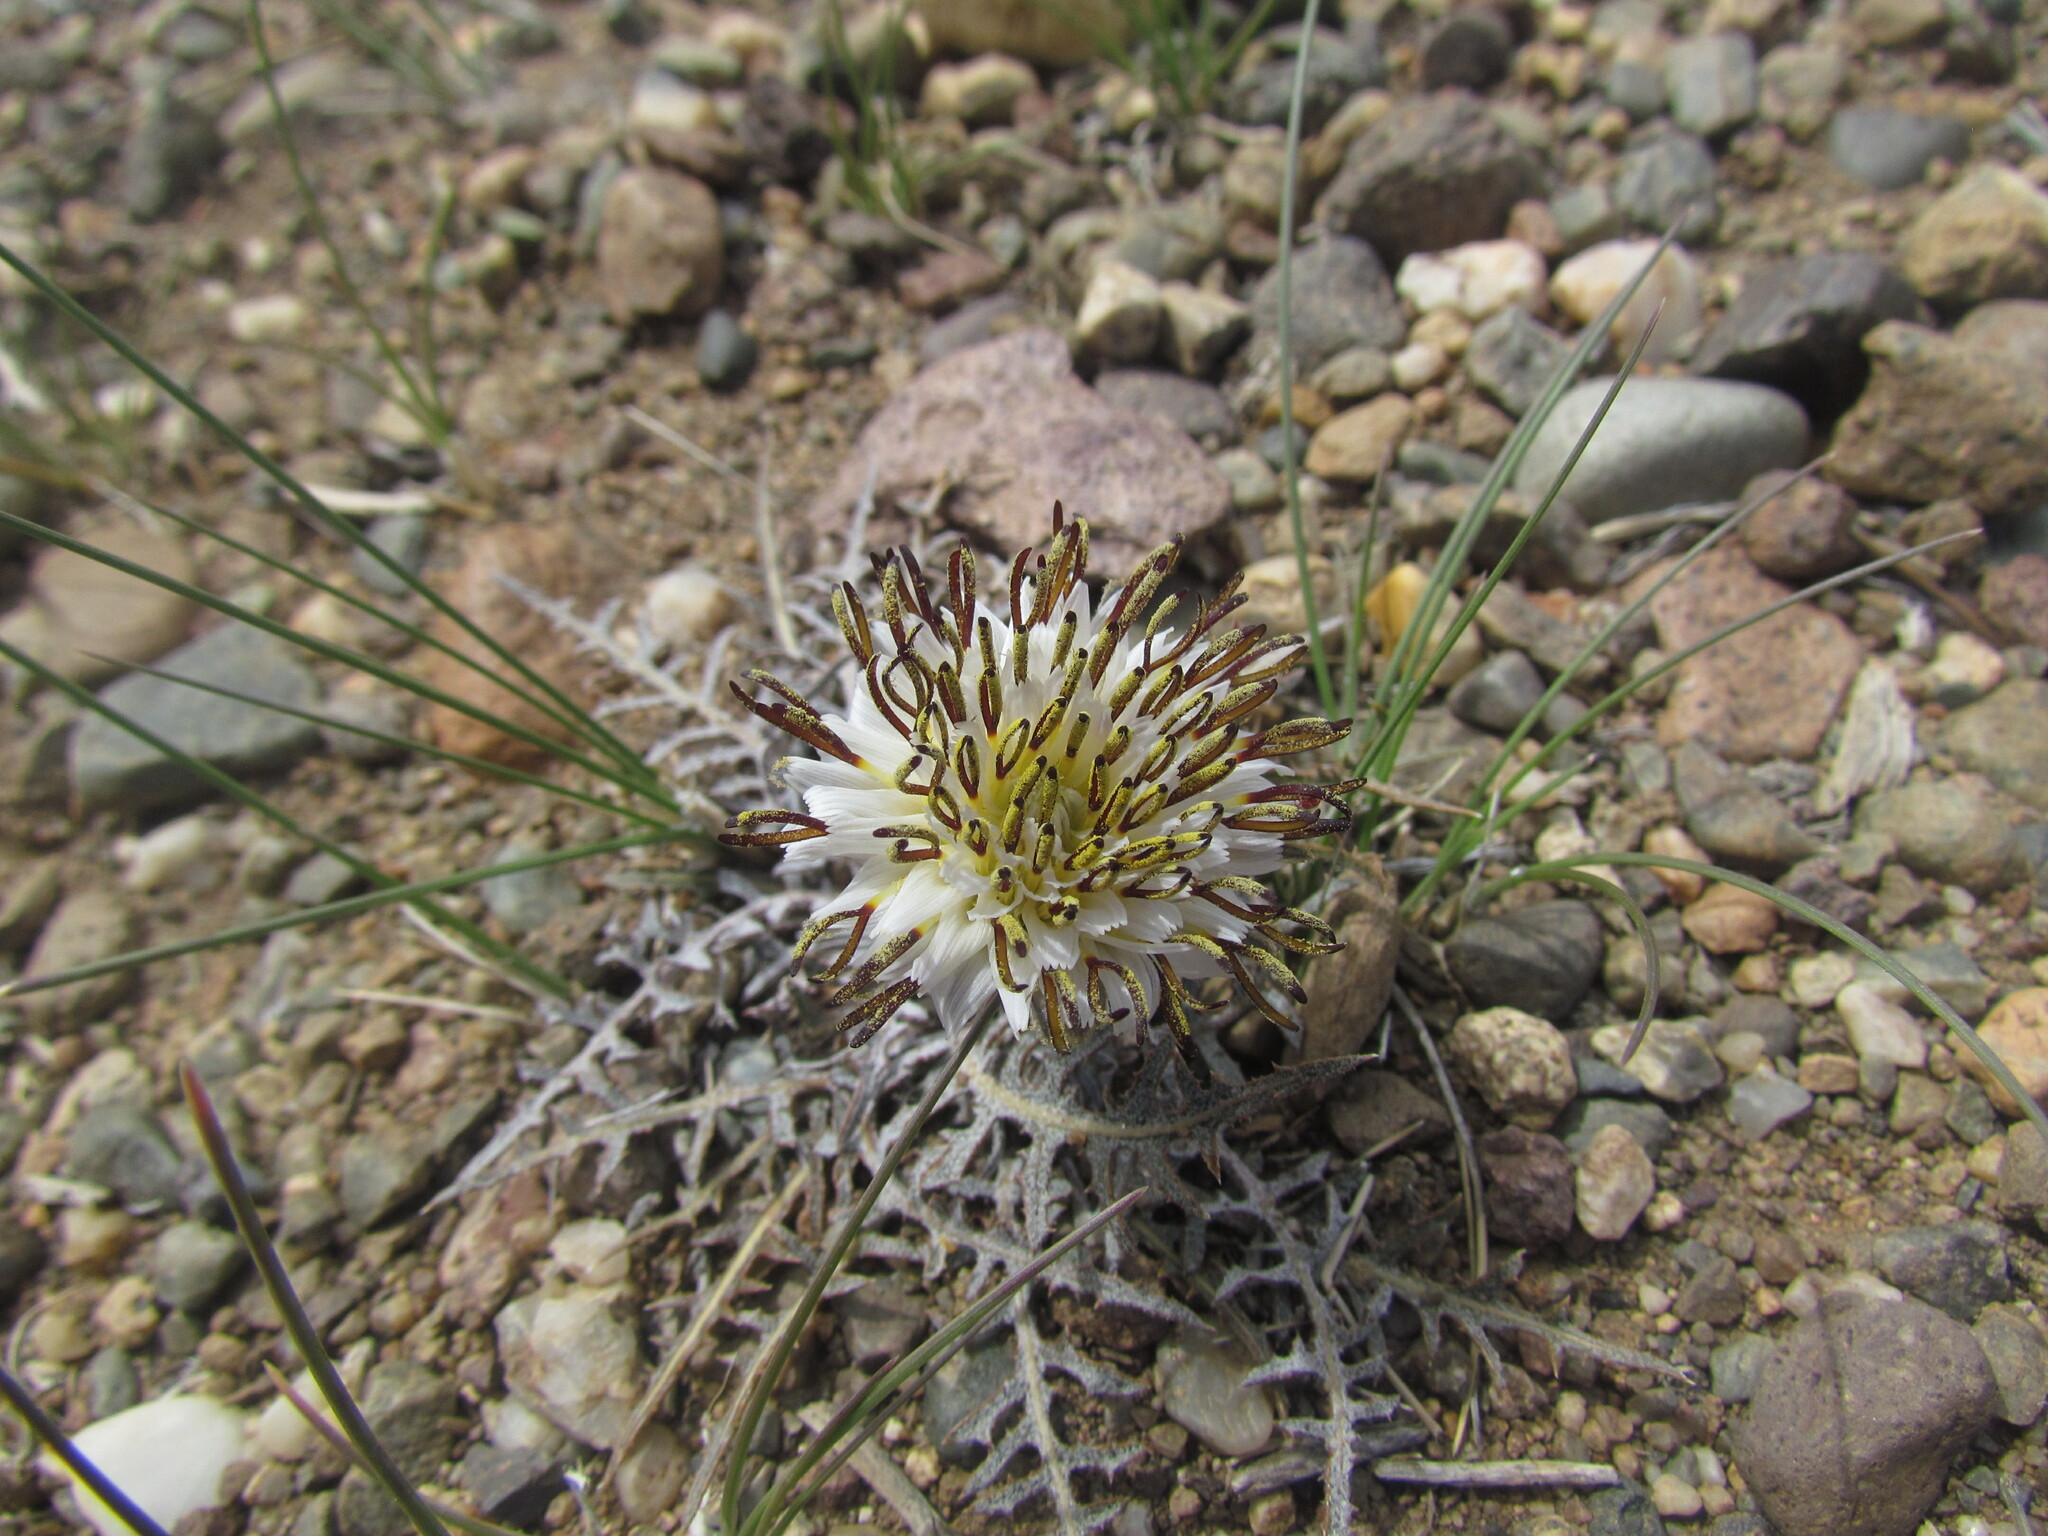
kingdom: Plantae
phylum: Tracheophyta
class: Magnoliopsida
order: Asterales
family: Asteraceae
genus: Hypochaeris
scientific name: Hypochaeris incana
